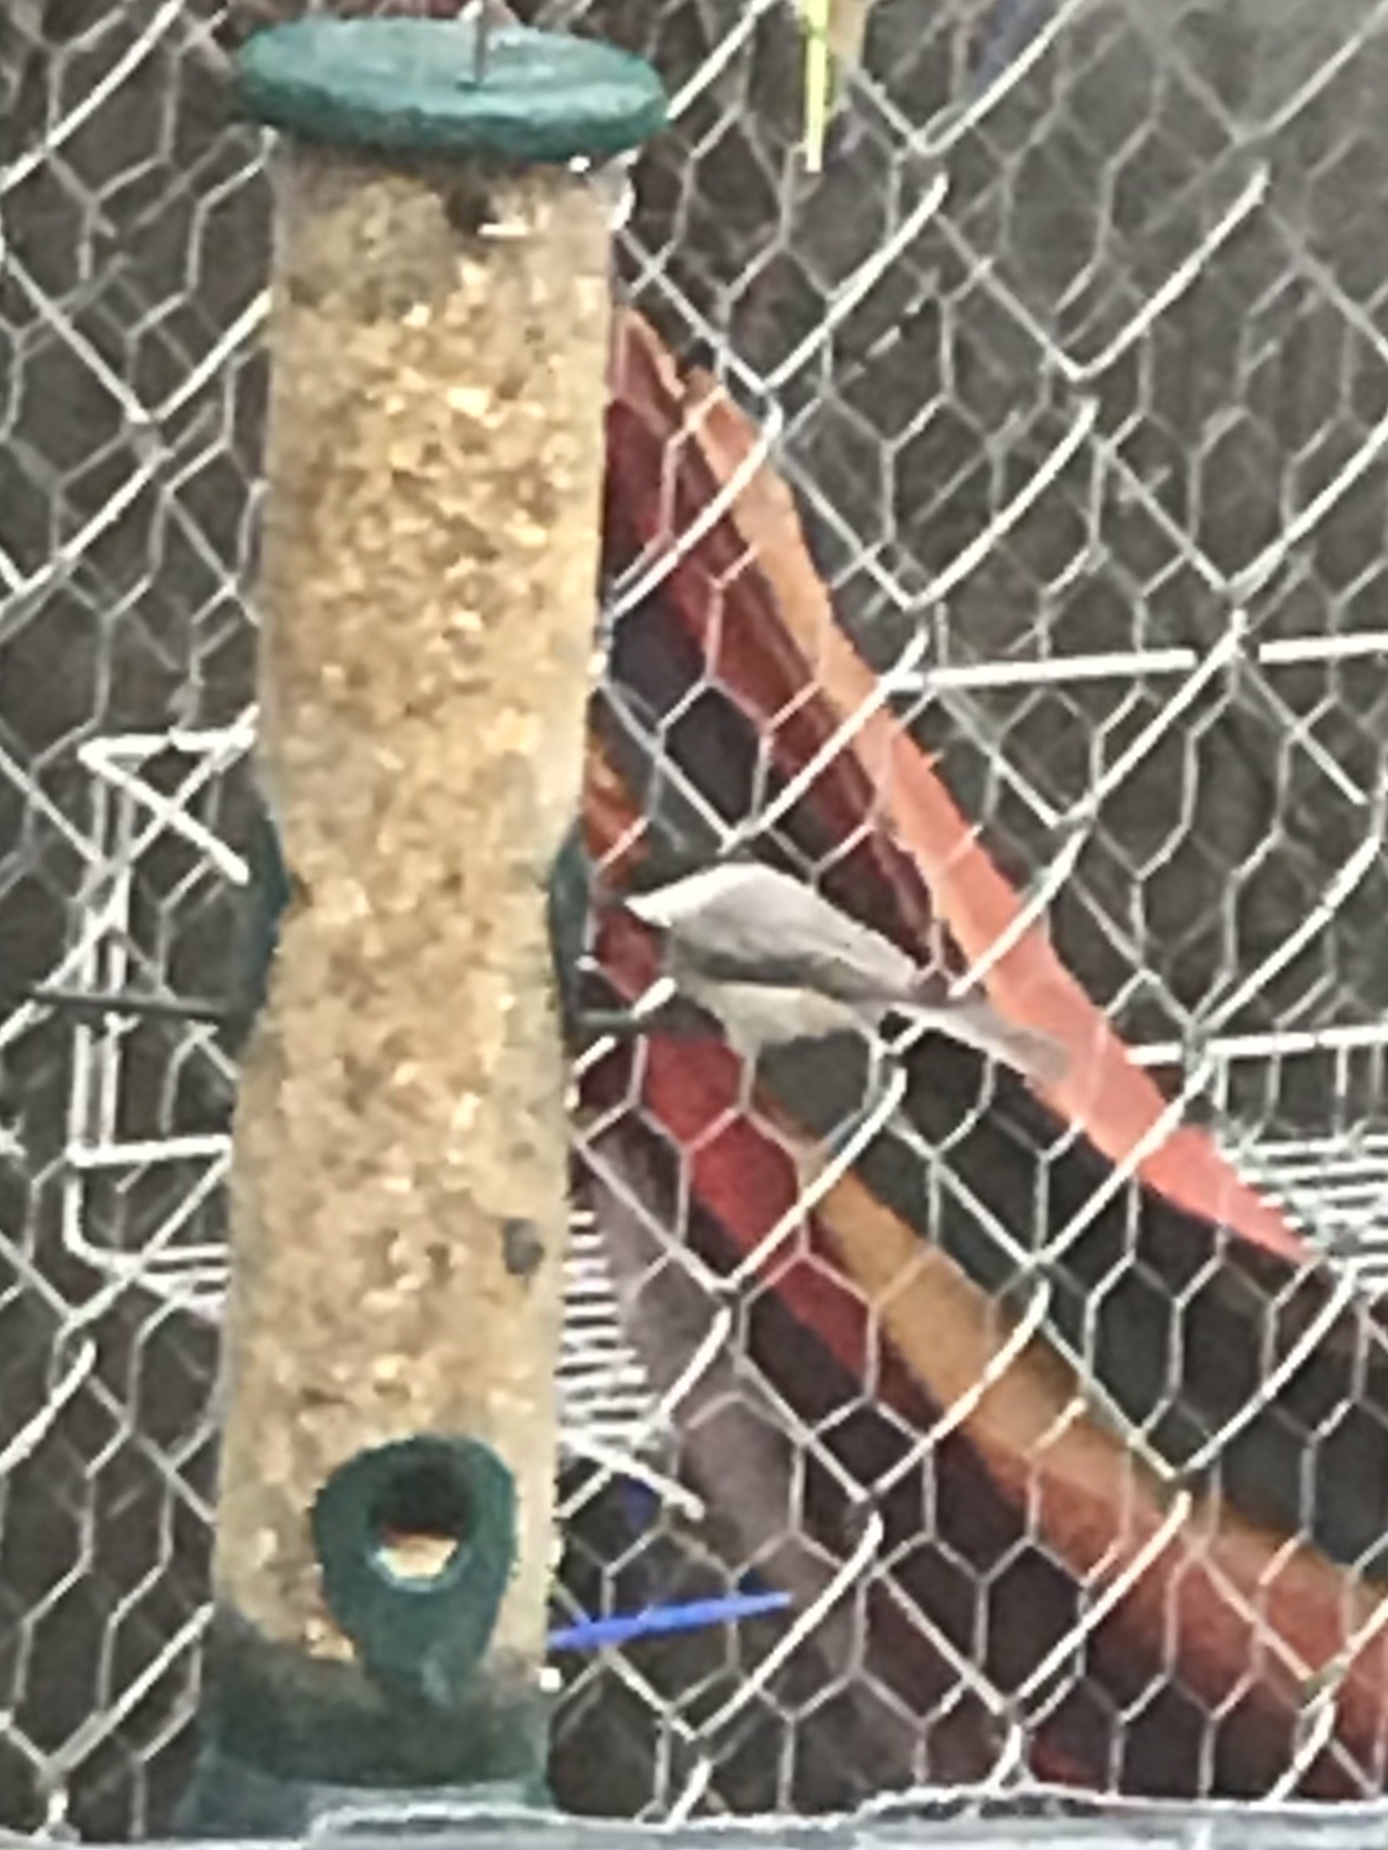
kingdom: Animalia
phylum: Chordata
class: Aves
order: Passeriformes
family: Paridae
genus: Poecile
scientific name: Poecile carolinensis
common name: Carolina chickadee
